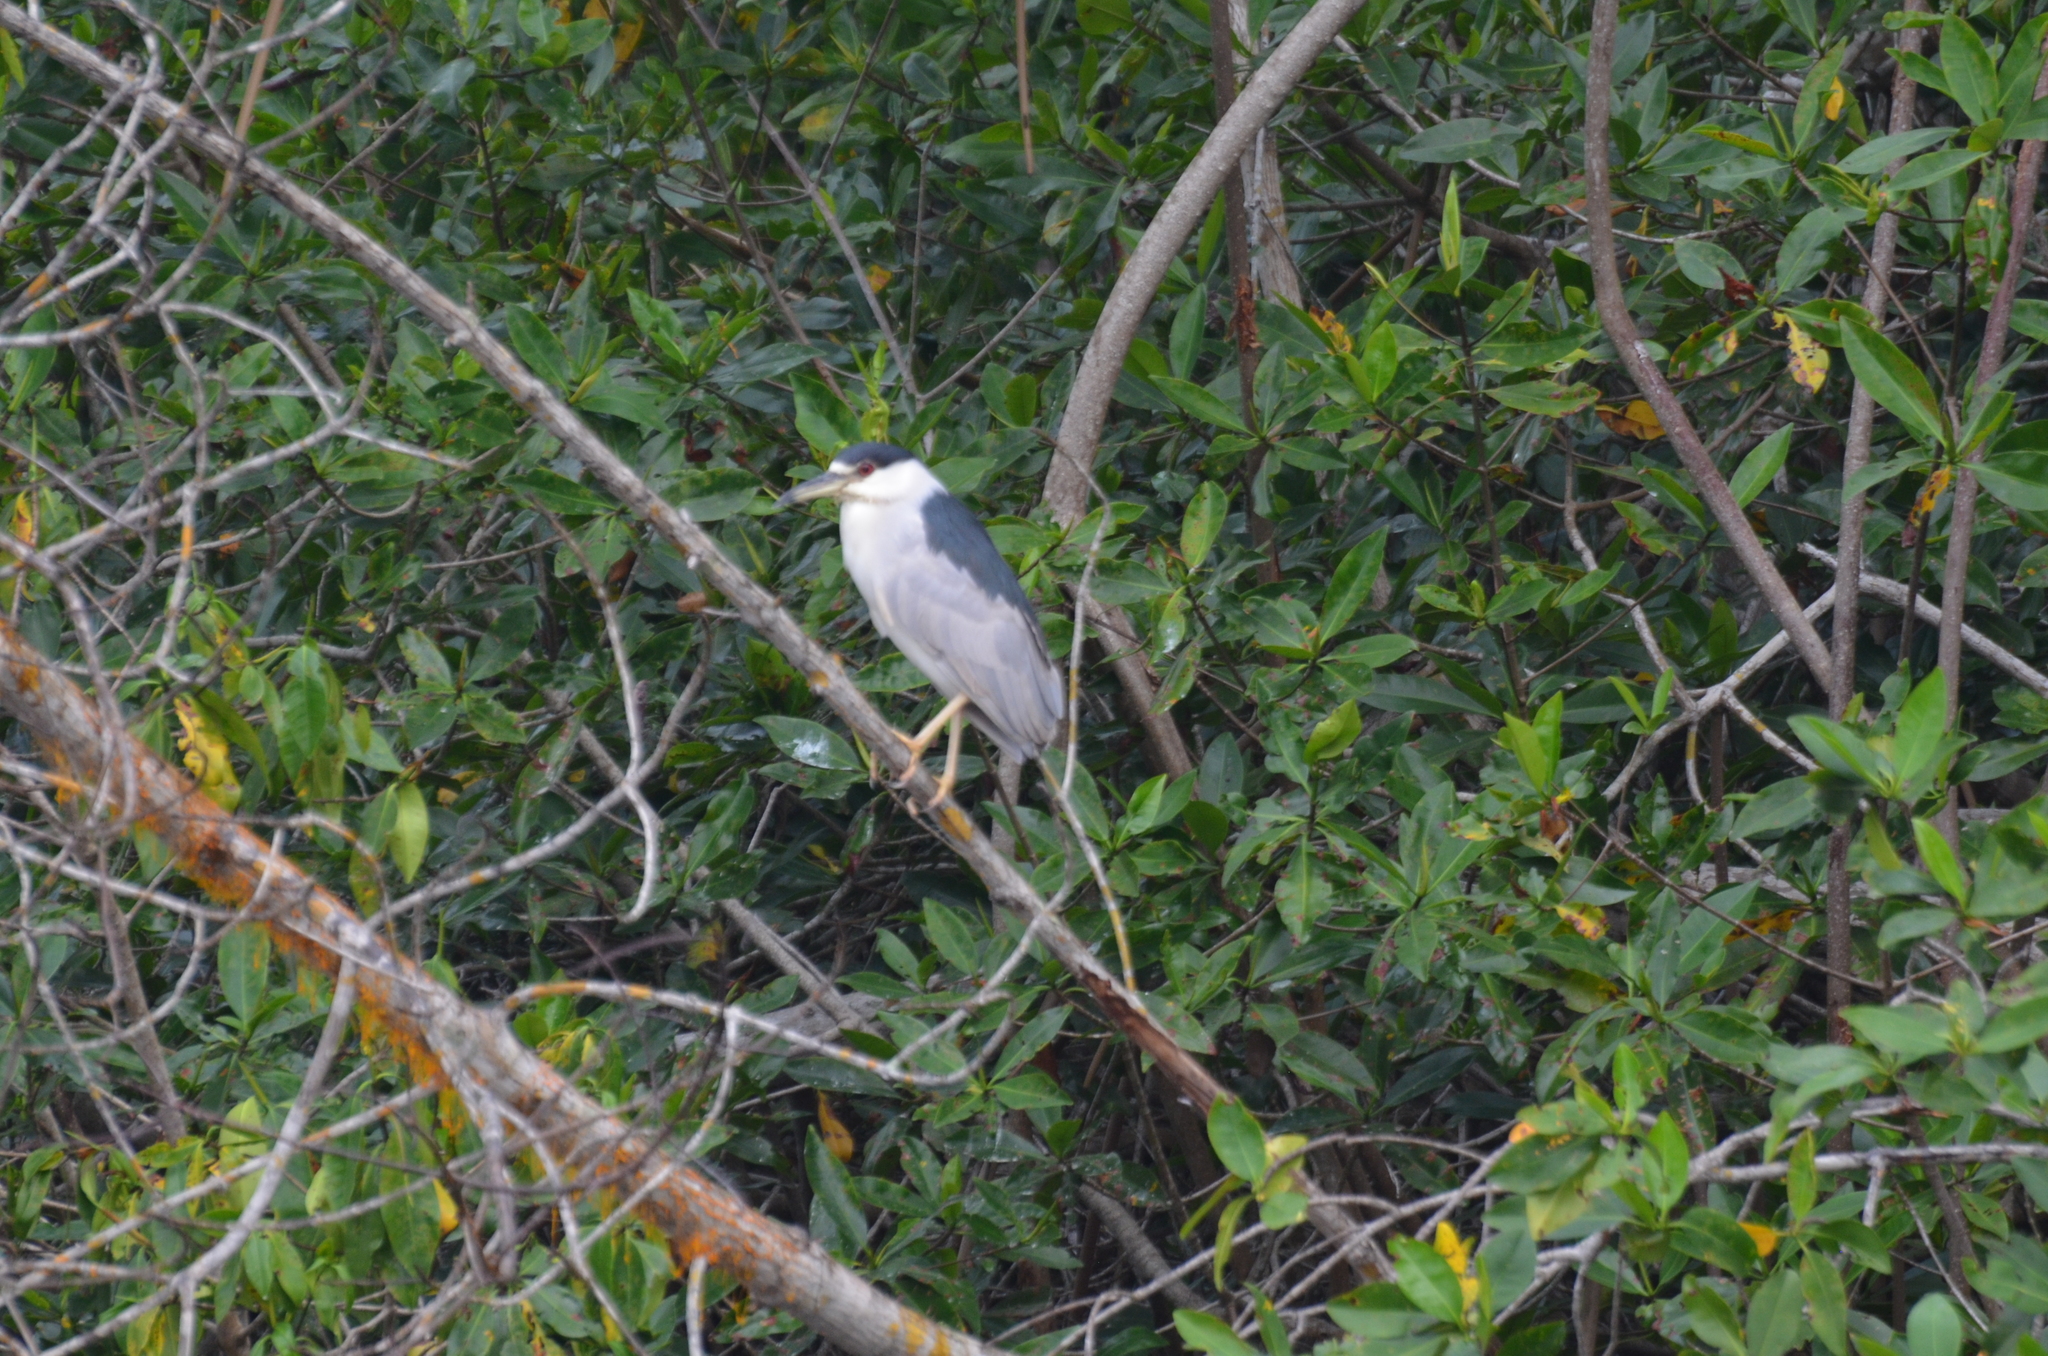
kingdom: Animalia
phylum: Chordata
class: Aves
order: Pelecaniformes
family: Ardeidae
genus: Nycticorax
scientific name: Nycticorax nycticorax
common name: Black-crowned night heron
